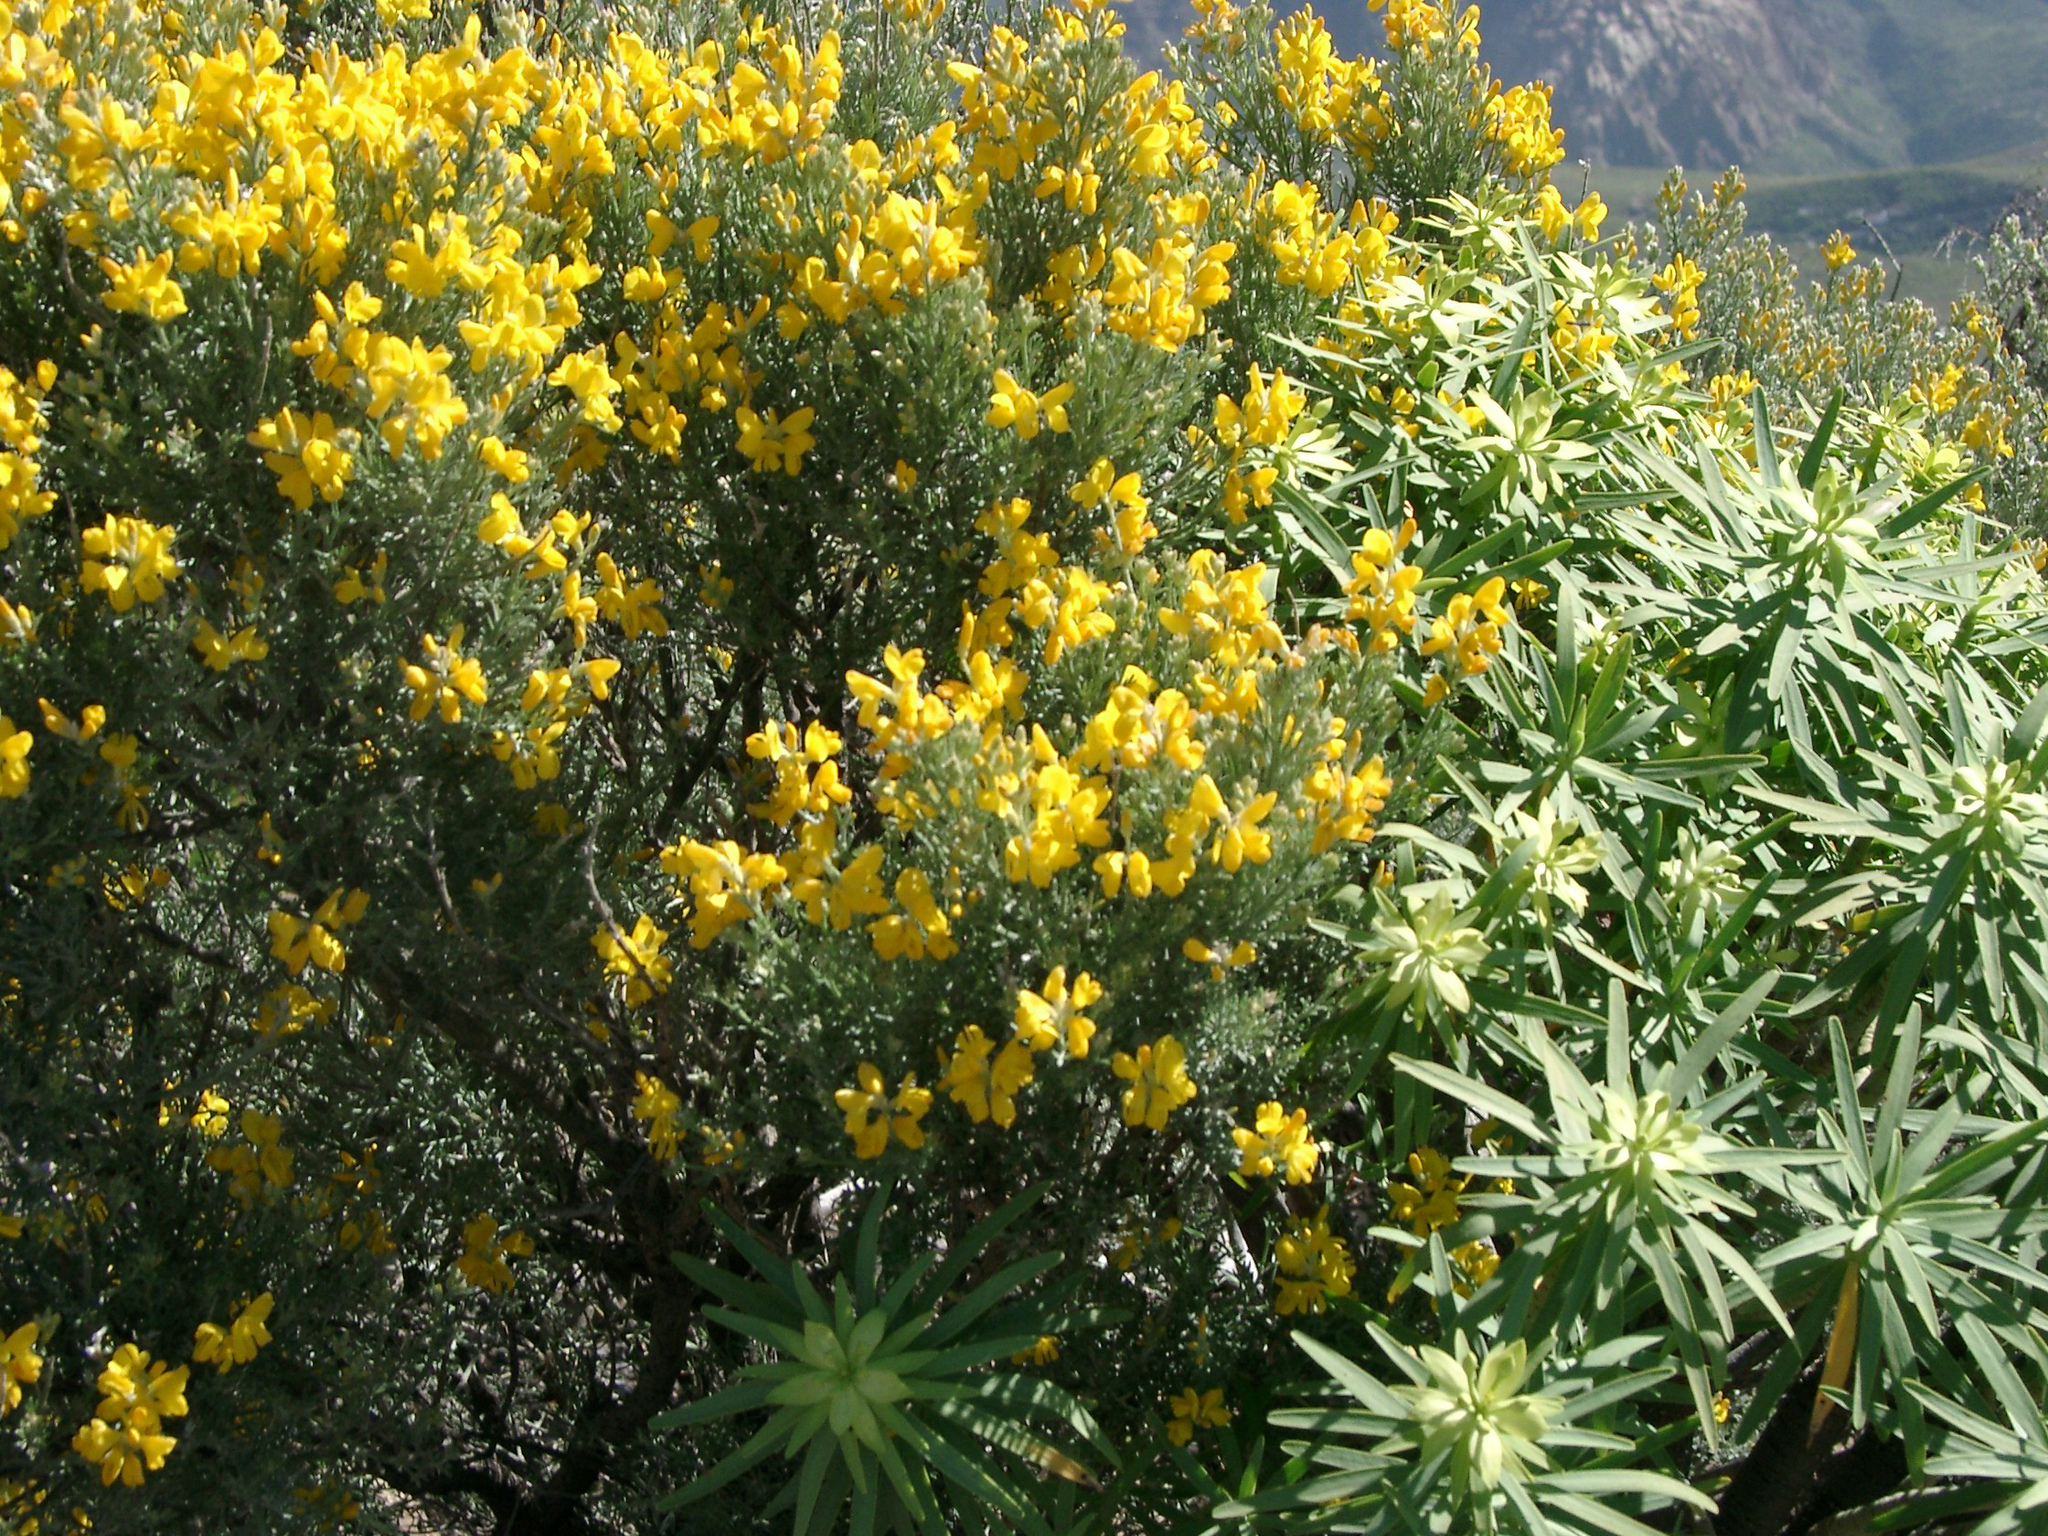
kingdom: Plantae
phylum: Tracheophyta
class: Magnoliopsida
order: Fabales
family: Fabaceae
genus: Adenocarpus
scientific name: Adenocarpus foliolosus
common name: Canary island flatpod
